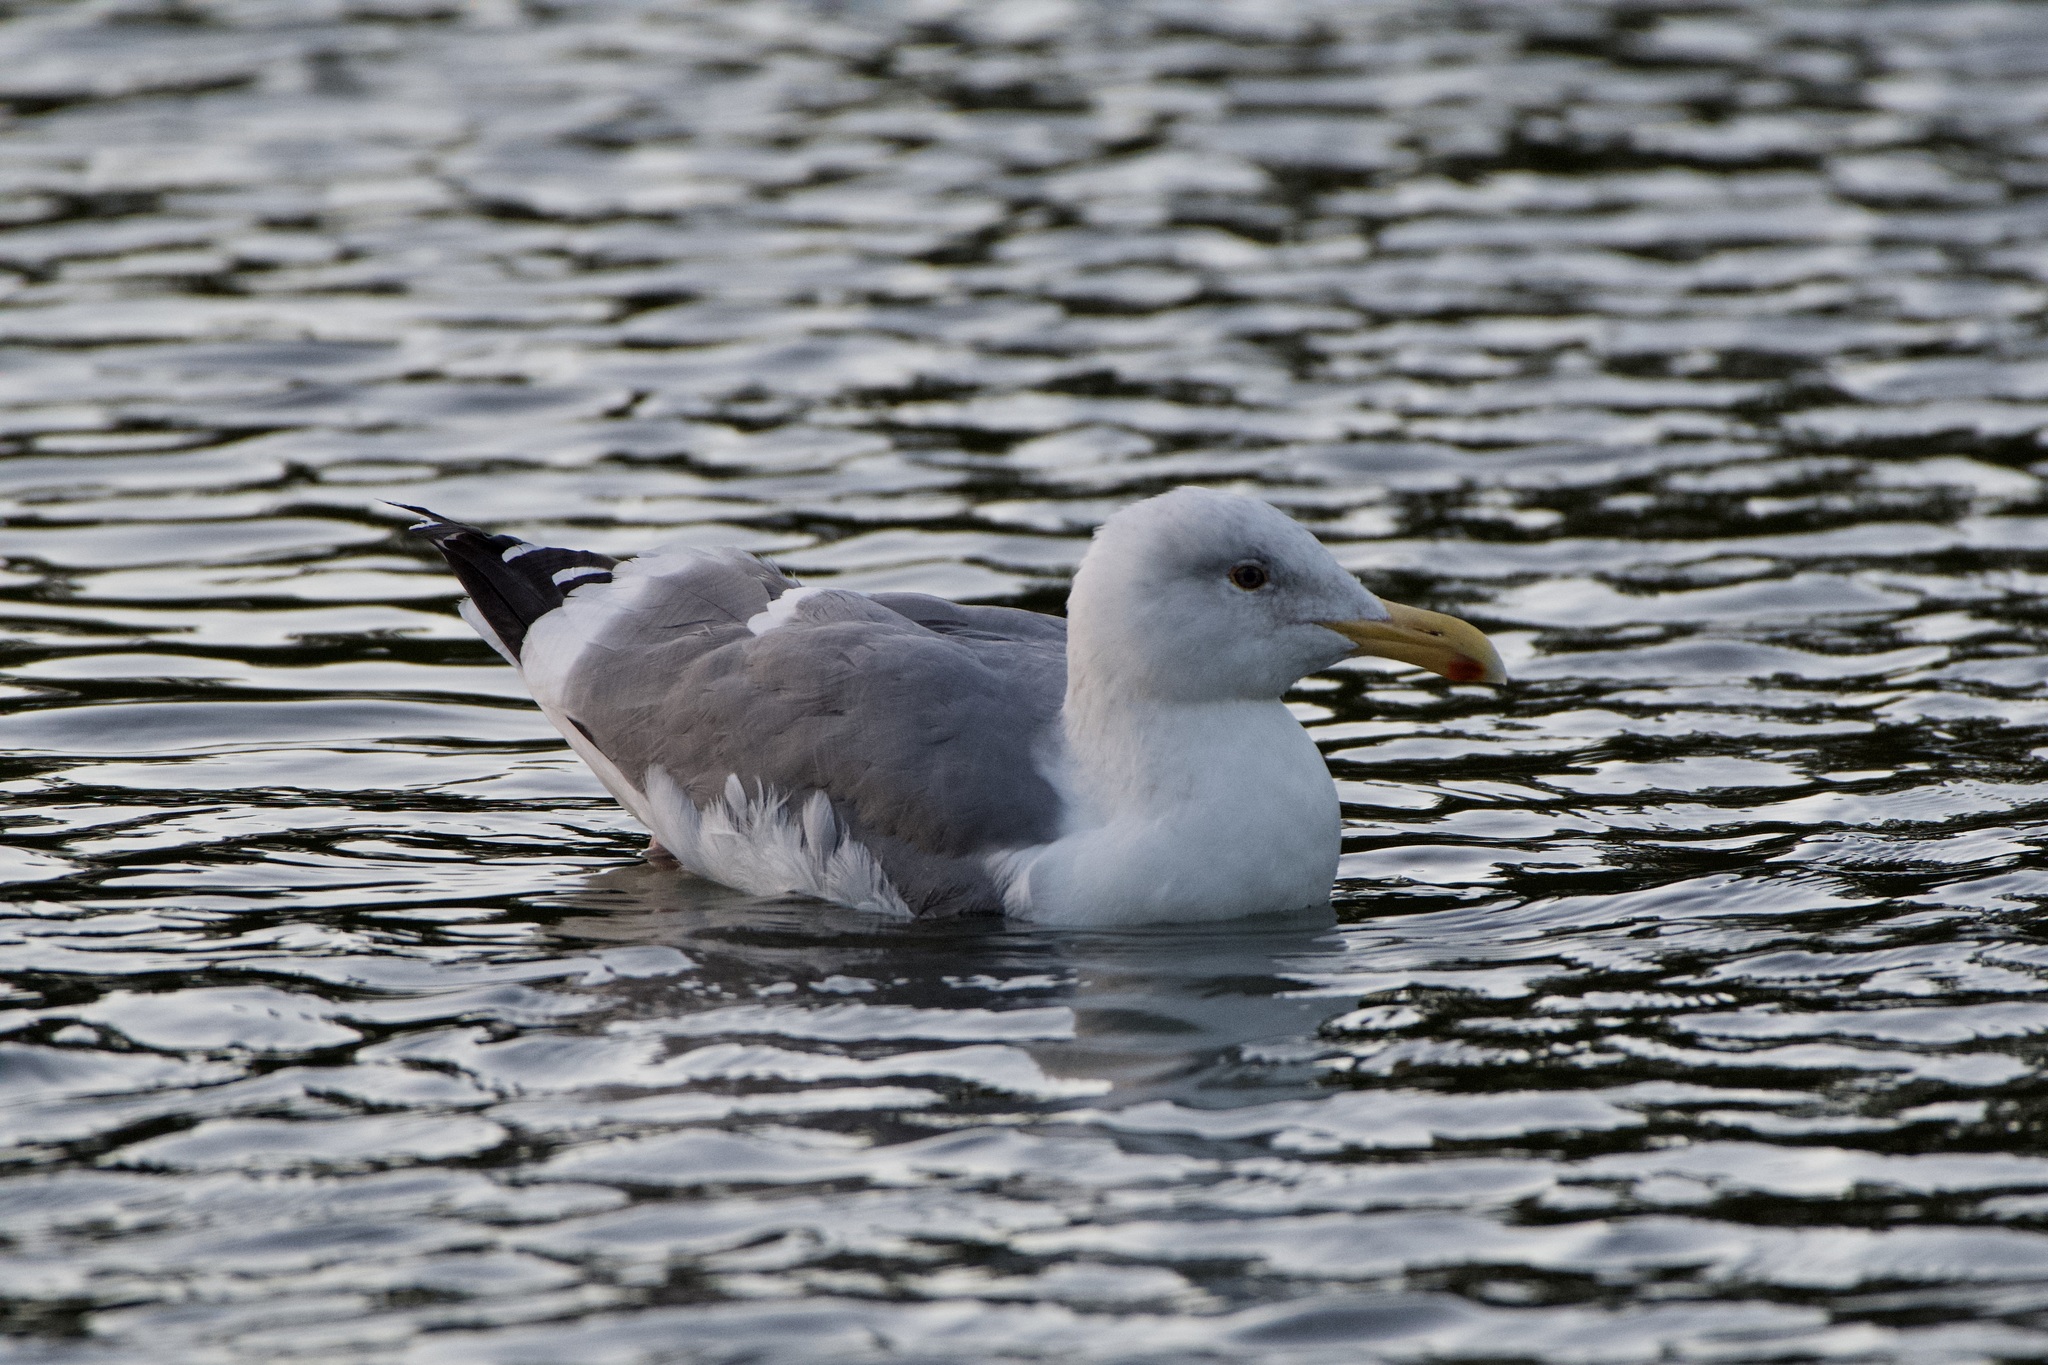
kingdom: Animalia
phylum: Chordata
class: Aves
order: Charadriiformes
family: Laridae
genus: Larus
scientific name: Larus occidentalis
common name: Western gull
